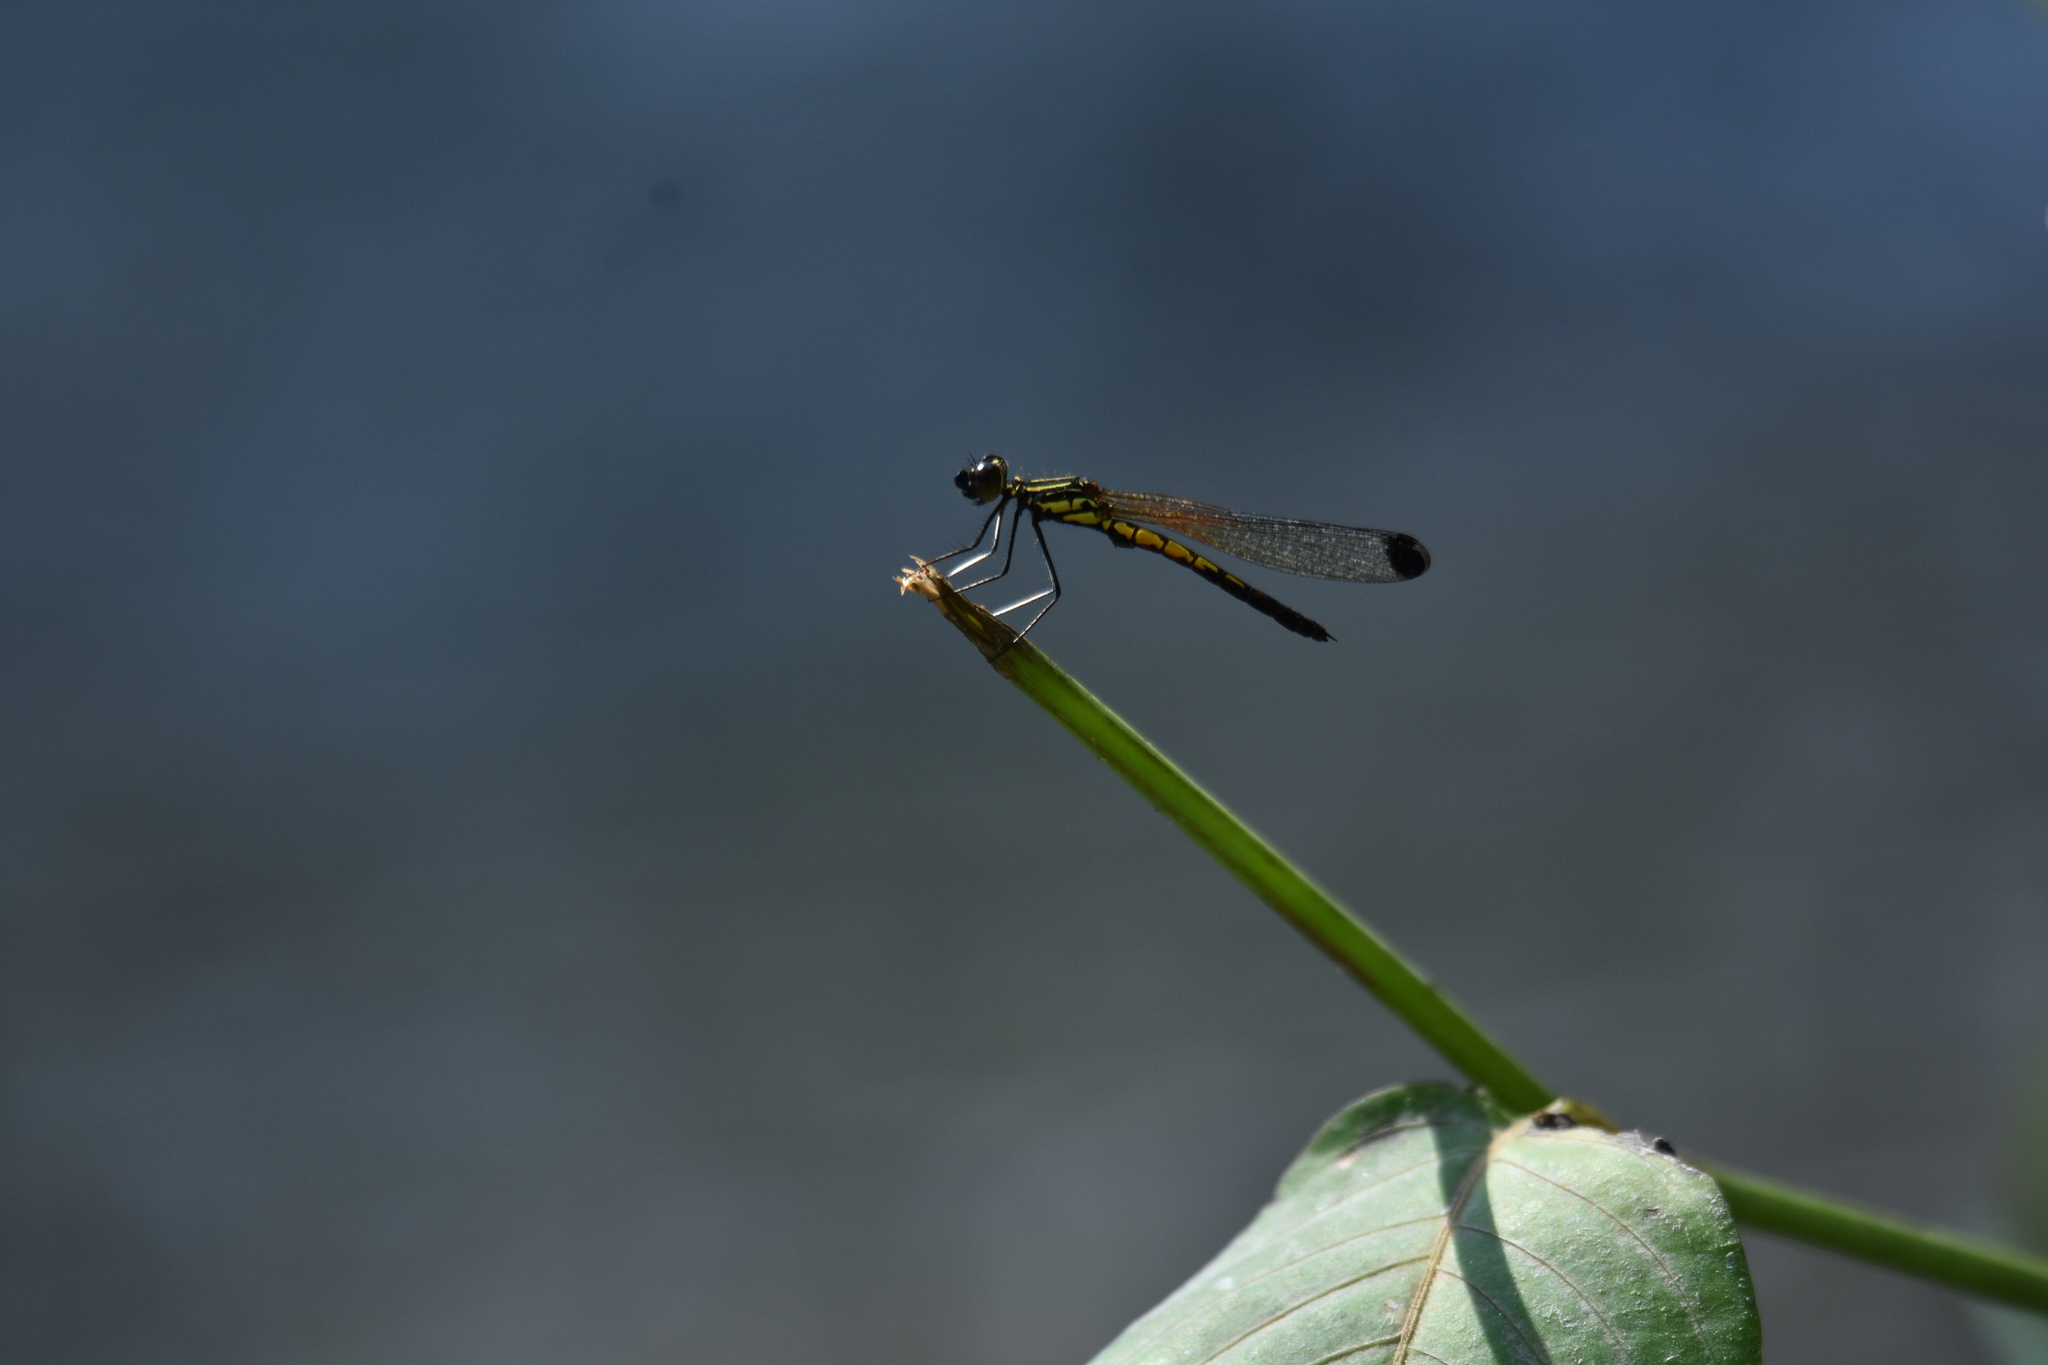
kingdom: Animalia
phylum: Arthropoda
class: Insecta
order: Odonata
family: Chlorocyphidae
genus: Libellago
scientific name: Libellago indica
